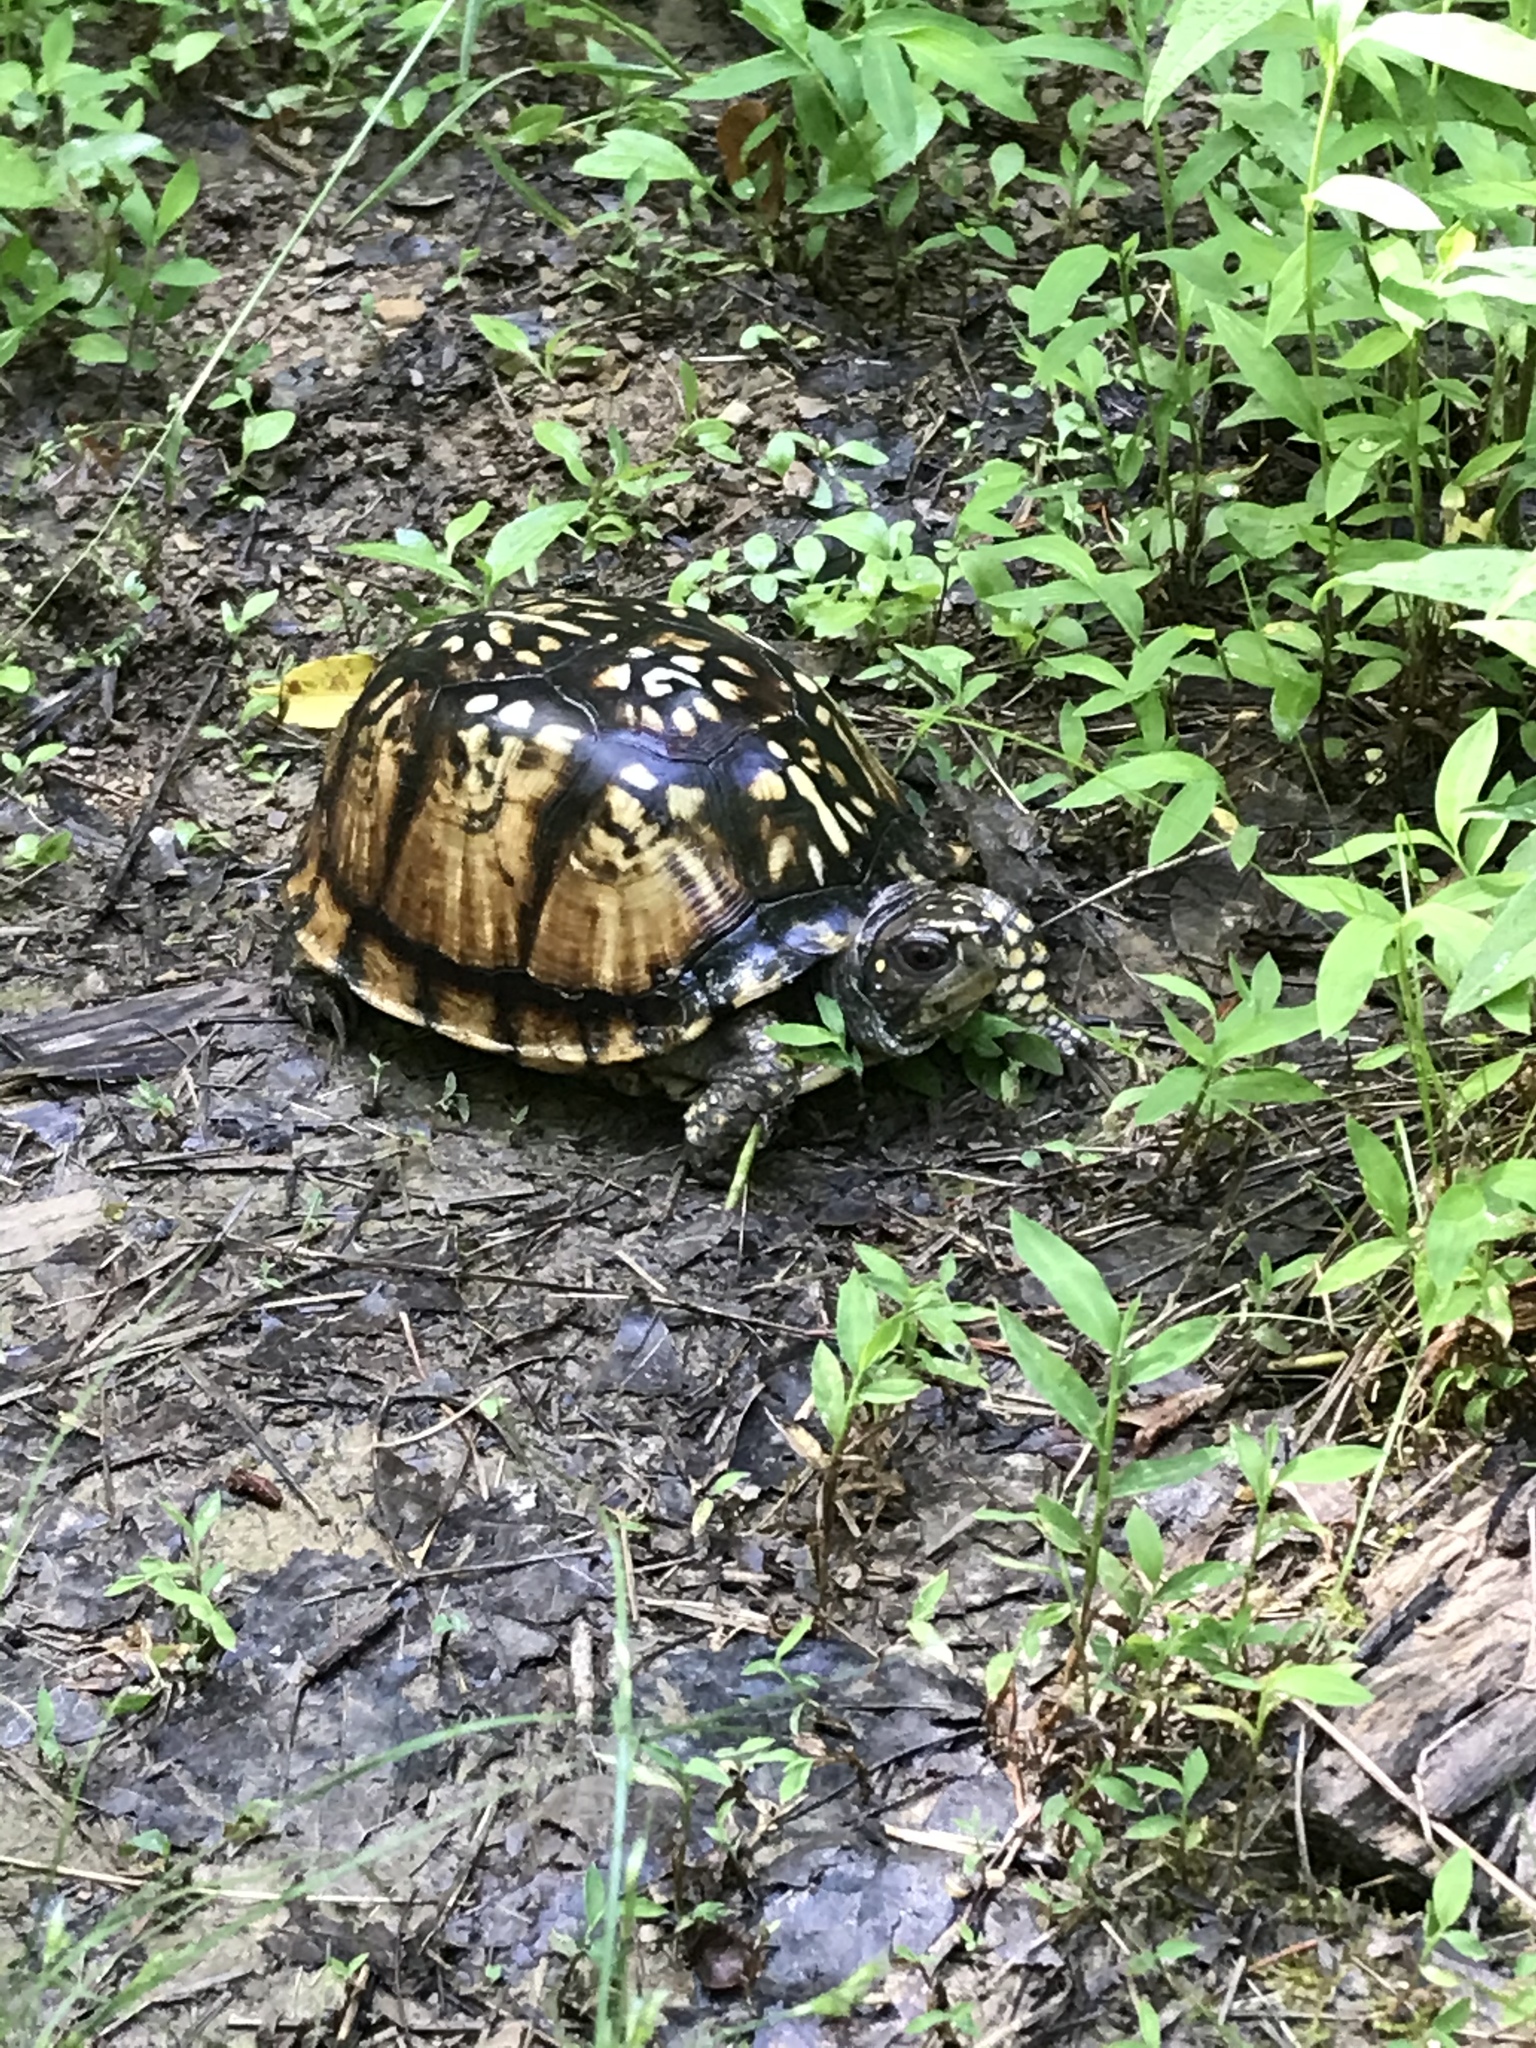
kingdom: Animalia
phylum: Chordata
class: Testudines
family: Emydidae
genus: Terrapene
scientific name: Terrapene carolina
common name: Common box turtle
